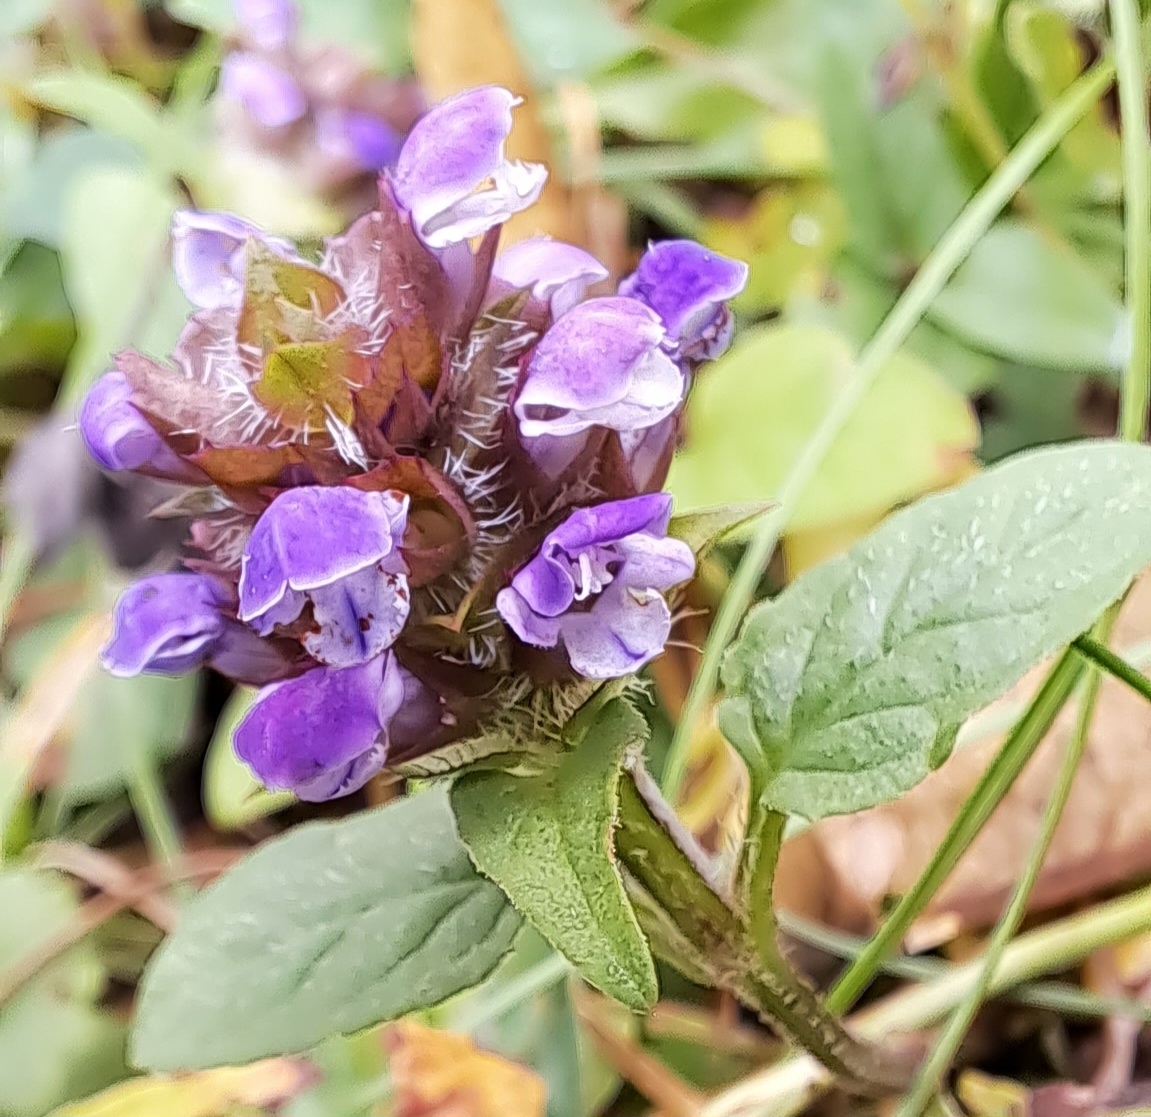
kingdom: Plantae
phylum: Tracheophyta
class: Magnoliopsida
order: Lamiales
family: Lamiaceae
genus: Prunella
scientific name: Prunella vulgaris
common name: Heal-all
